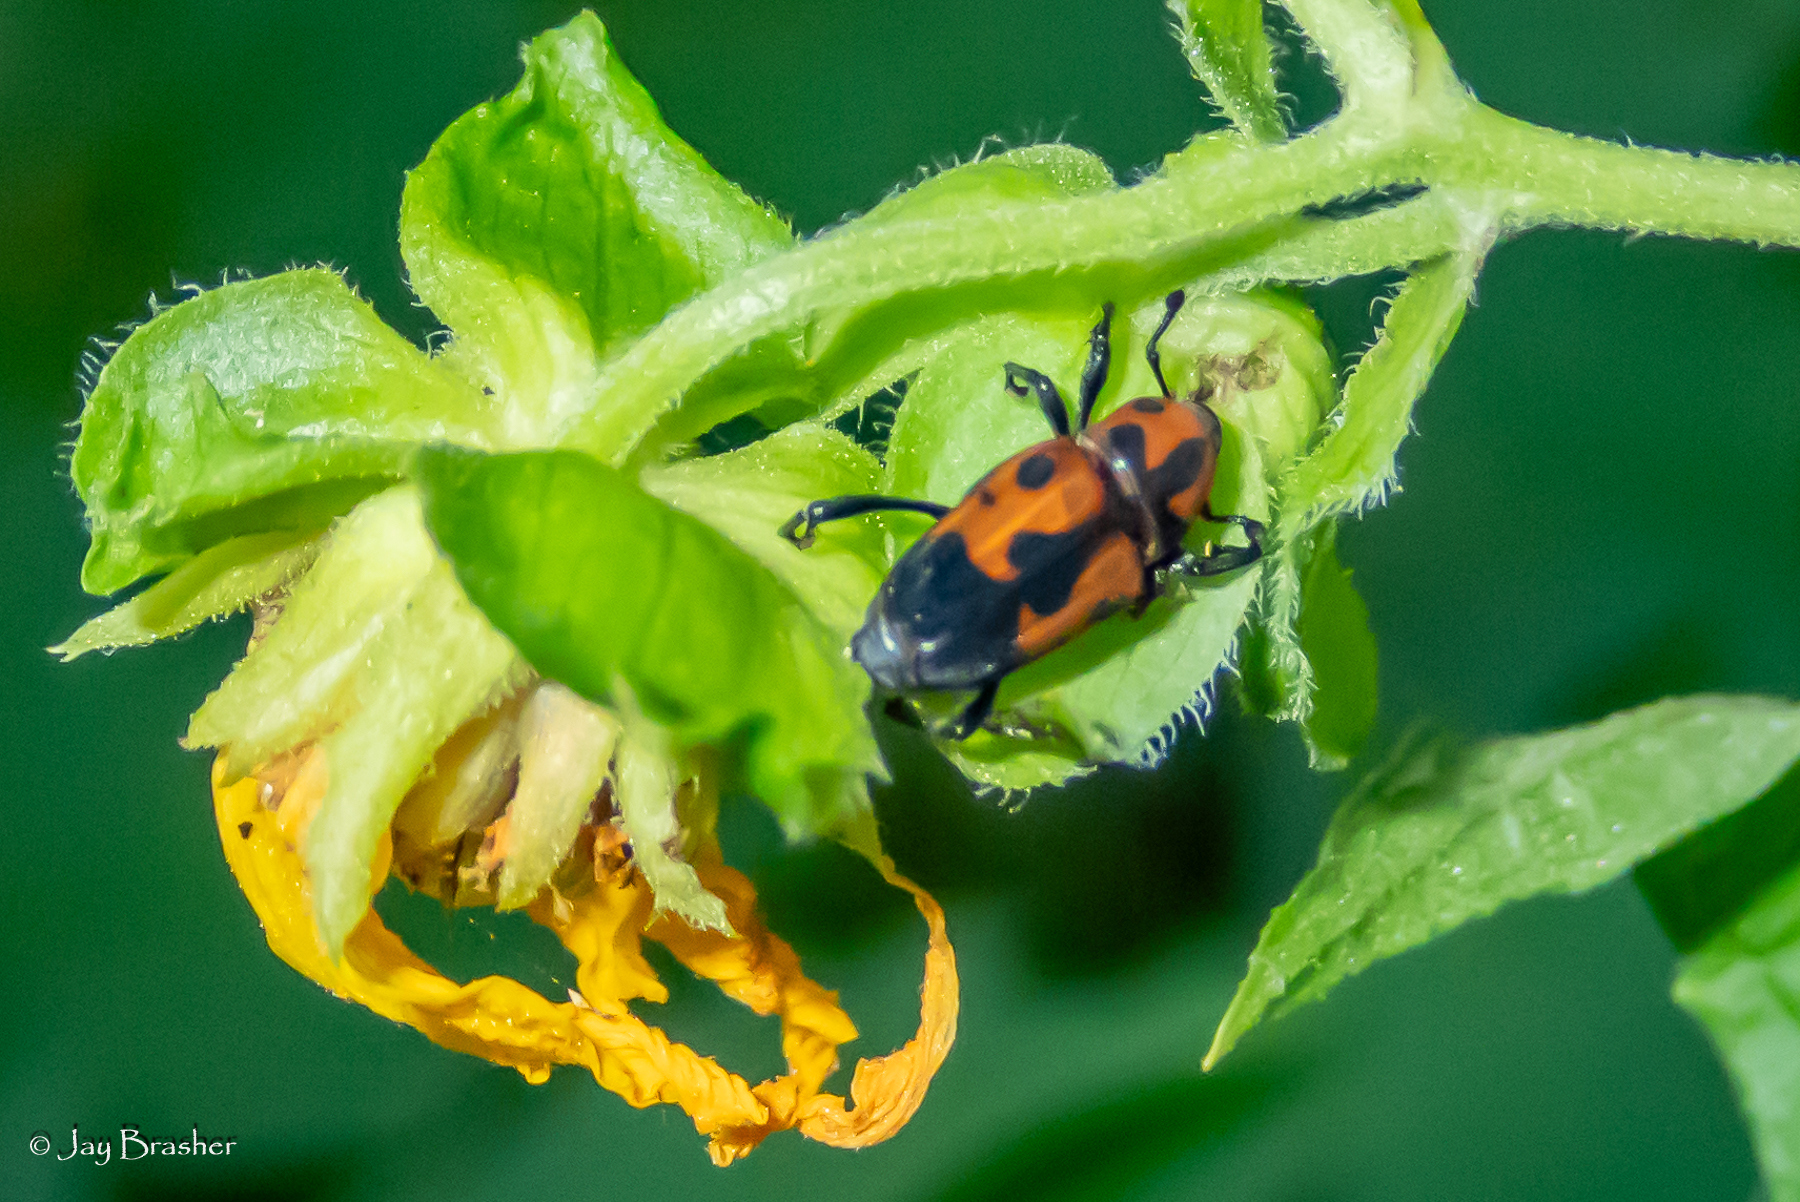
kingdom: Animalia
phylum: Arthropoda
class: Insecta
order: Coleoptera
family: Dryophthoridae
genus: Rhodobaenus
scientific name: Rhodobaenus quinquepunctatus
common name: Cocklebur weevil
